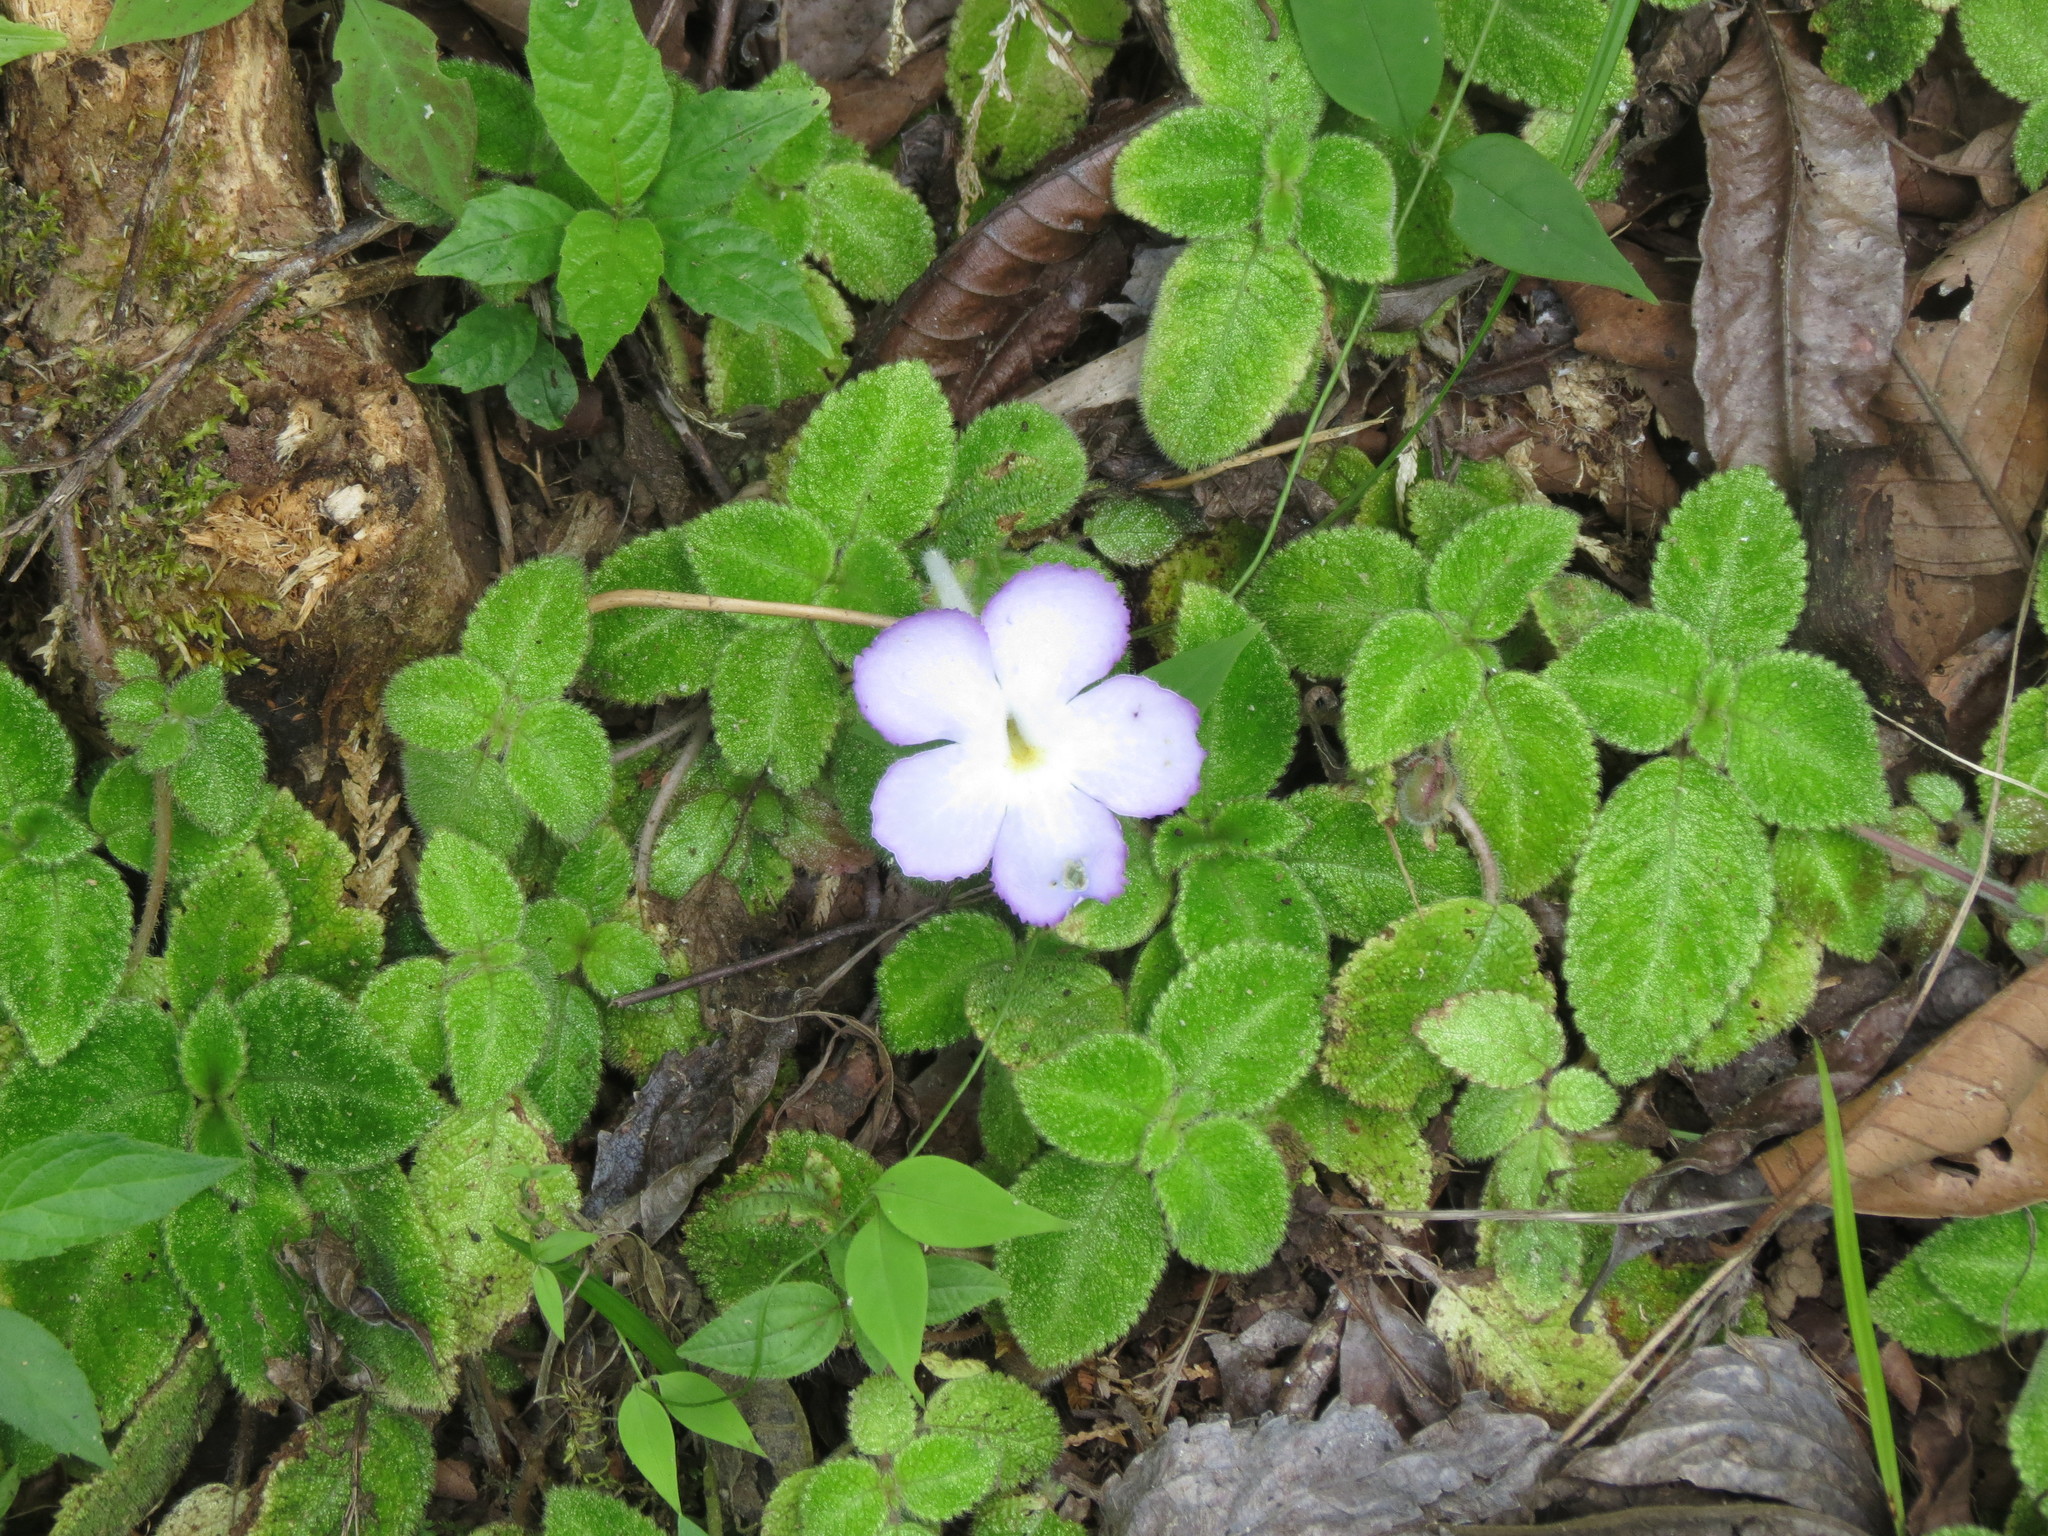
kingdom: Plantae
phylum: Tracheophyta
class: Magnoliopsida
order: Lamiales
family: Gesneriaceae
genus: Episcia
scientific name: Episcia lilacina
